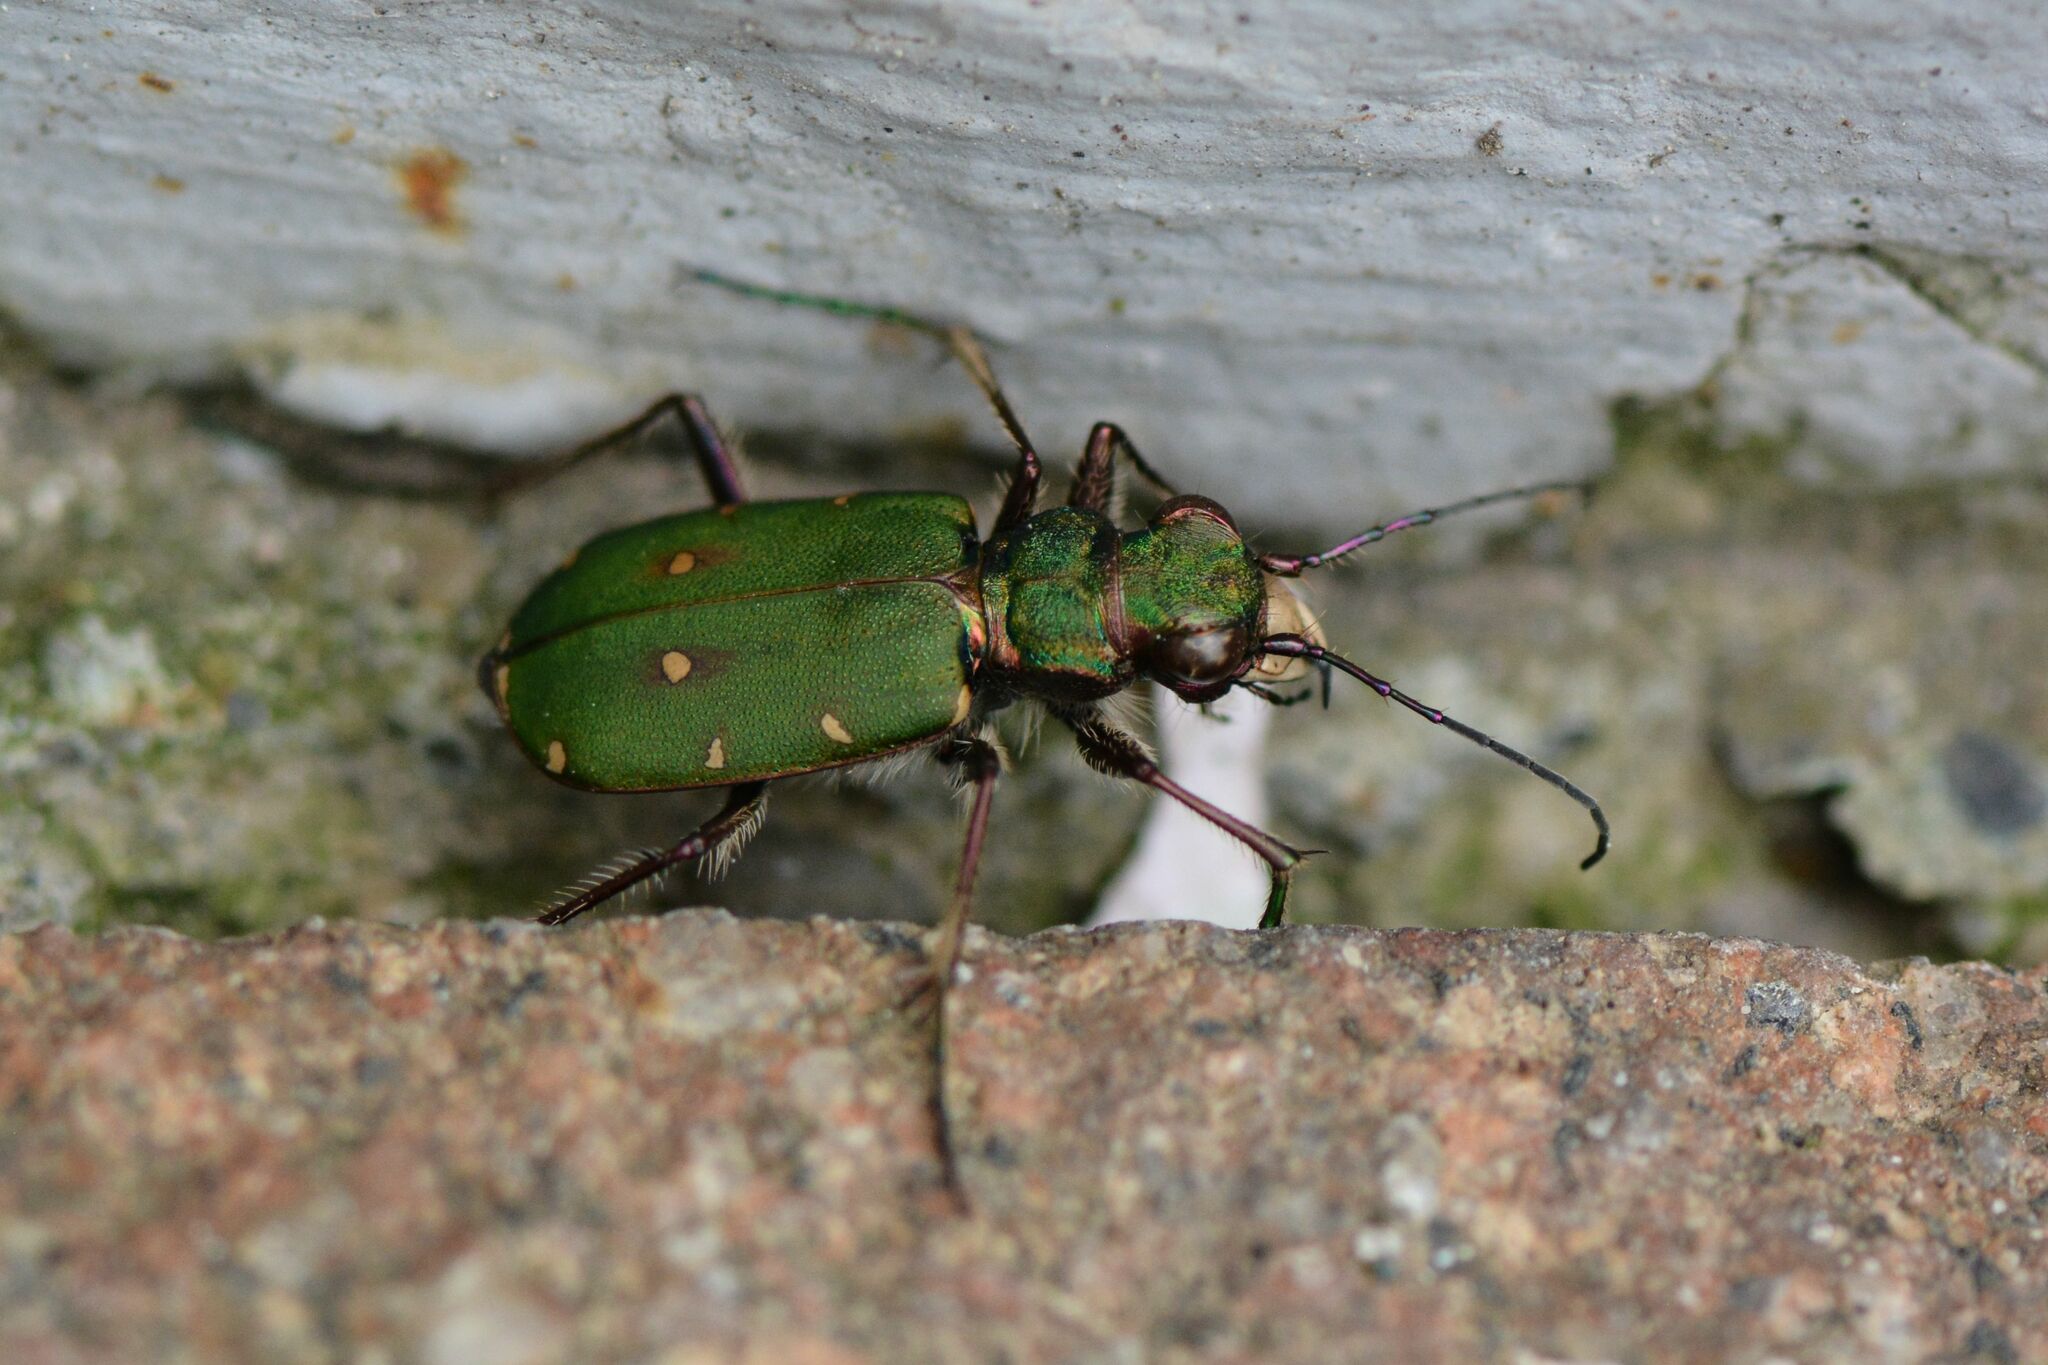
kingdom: Animalia
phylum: Arthropoda
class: Insecta
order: Coleoptera
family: Carabidae
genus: Cicindela
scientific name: Cicindela campestris
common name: Common tiger beetle
